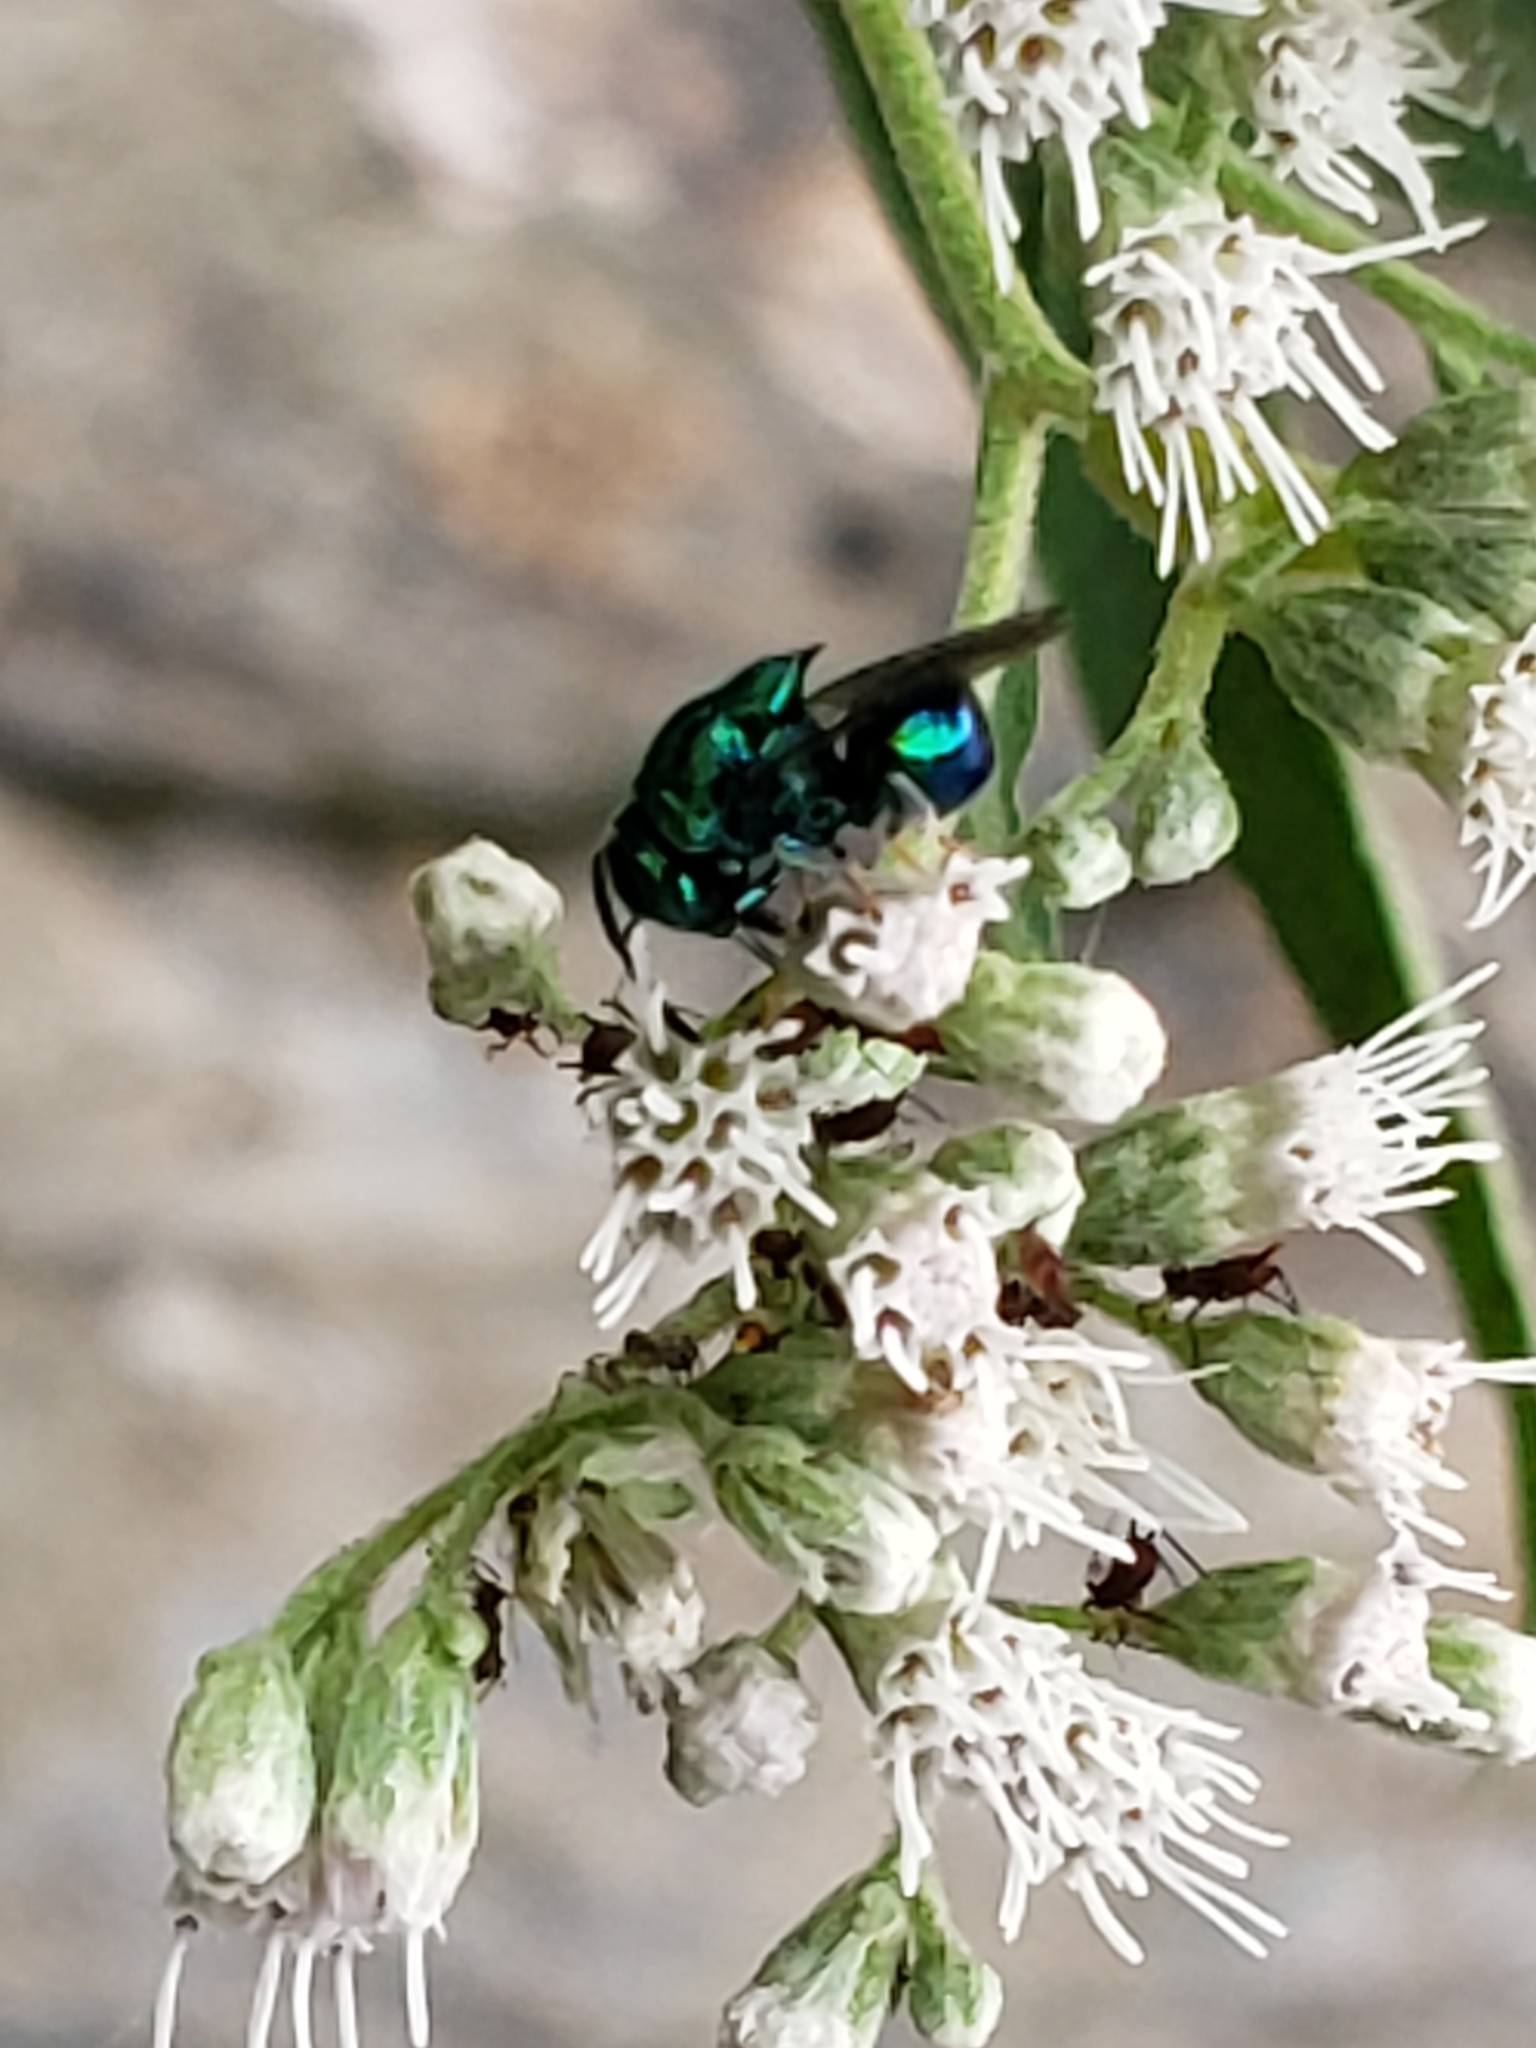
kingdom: Animalia
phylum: Arthropoda
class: Insecta
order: Hymenoptera
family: Perilampidae
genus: Euperilampus
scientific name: Euperilampus triangularis
